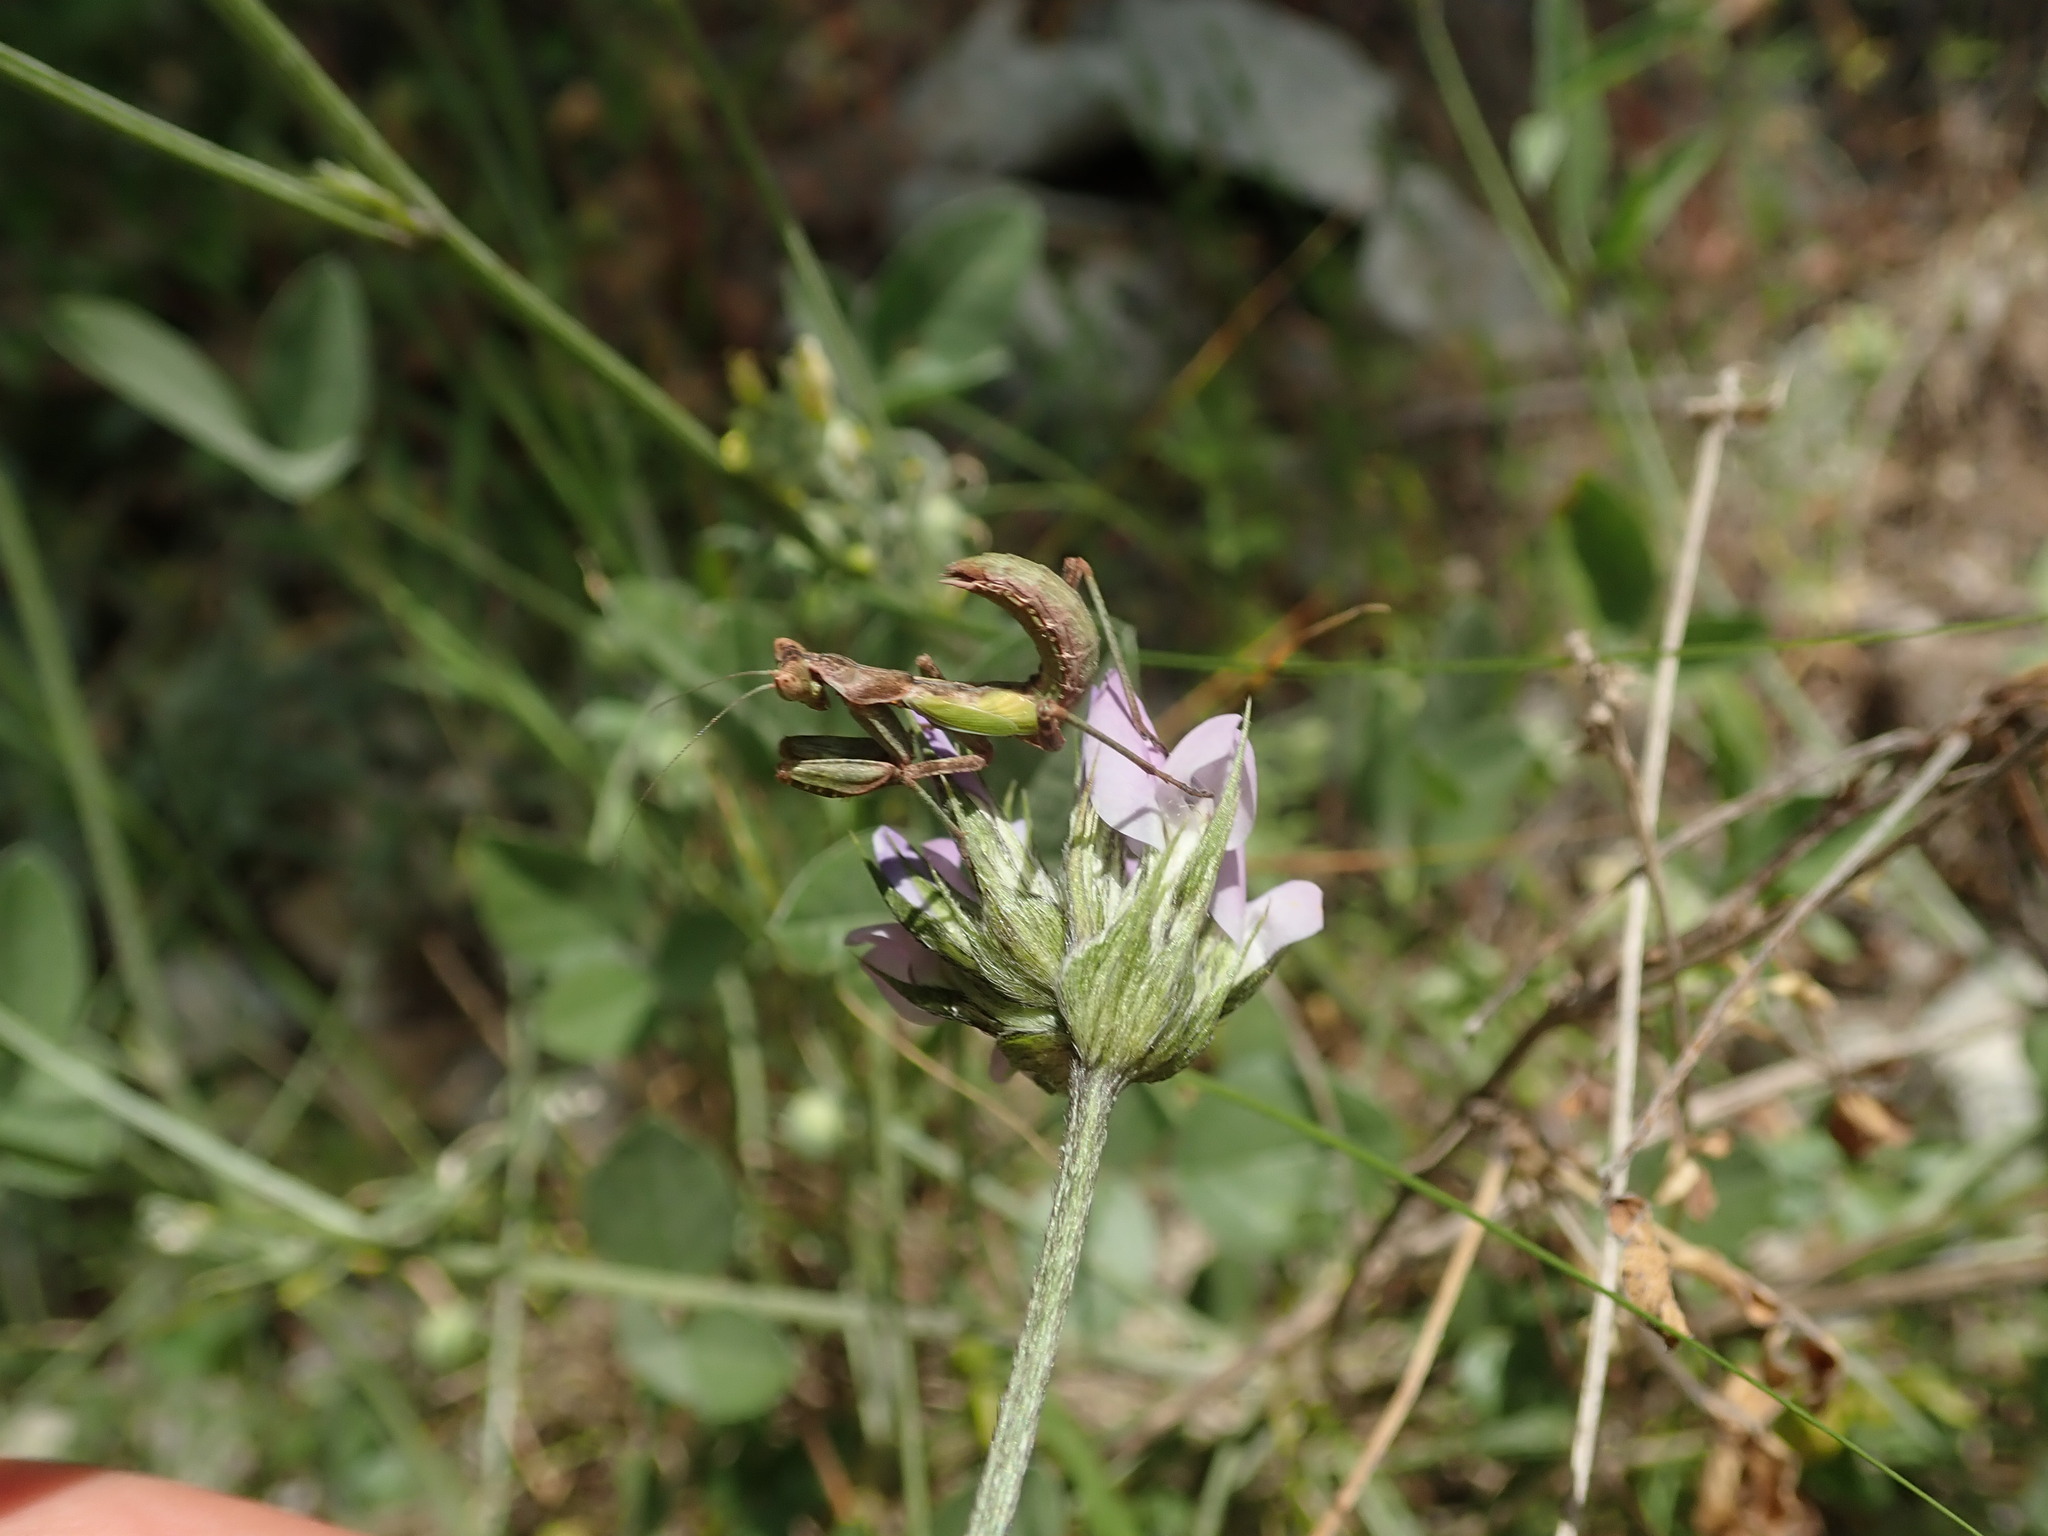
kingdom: Animalia
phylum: Arthropoda
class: Insecta
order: Mantodea
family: Amelidae
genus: Ameles
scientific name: Ameles spallanzania
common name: European dwarf mantis
